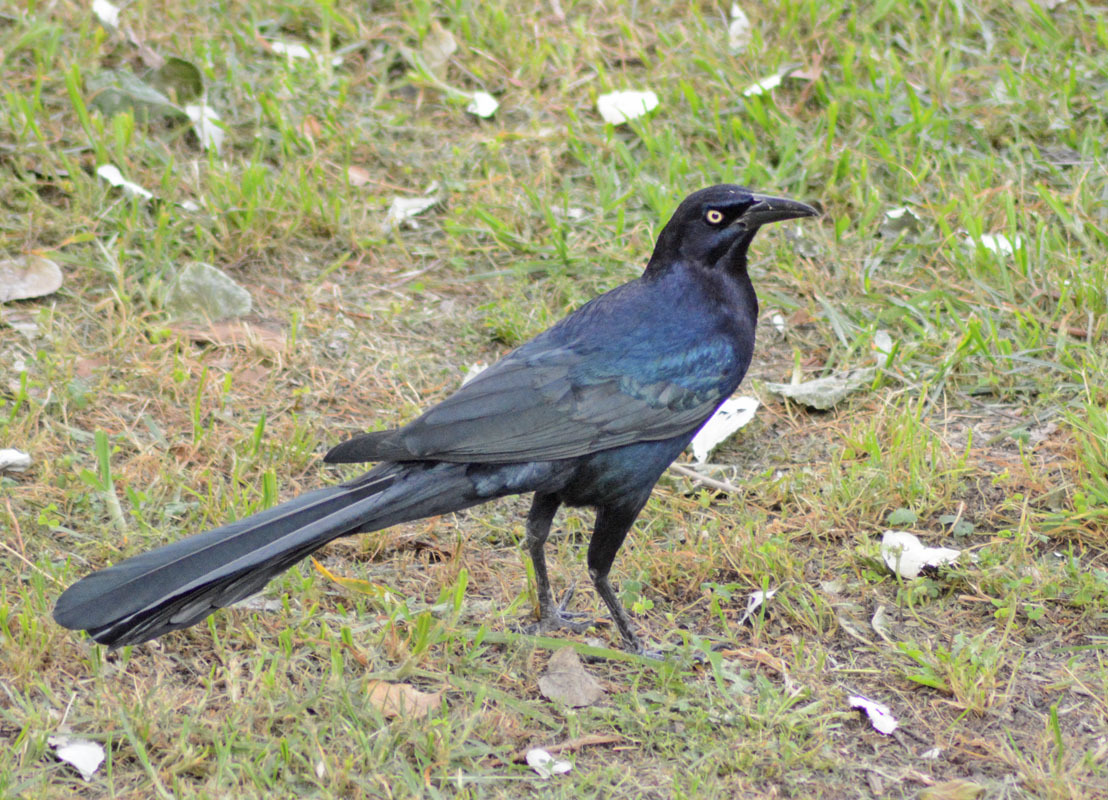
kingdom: Animalia
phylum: Chordata
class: Aves
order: Passeriformes
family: Icteridae
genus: Quiscalus
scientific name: Quiscalus mexicanus
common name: Great-tailed grackle
